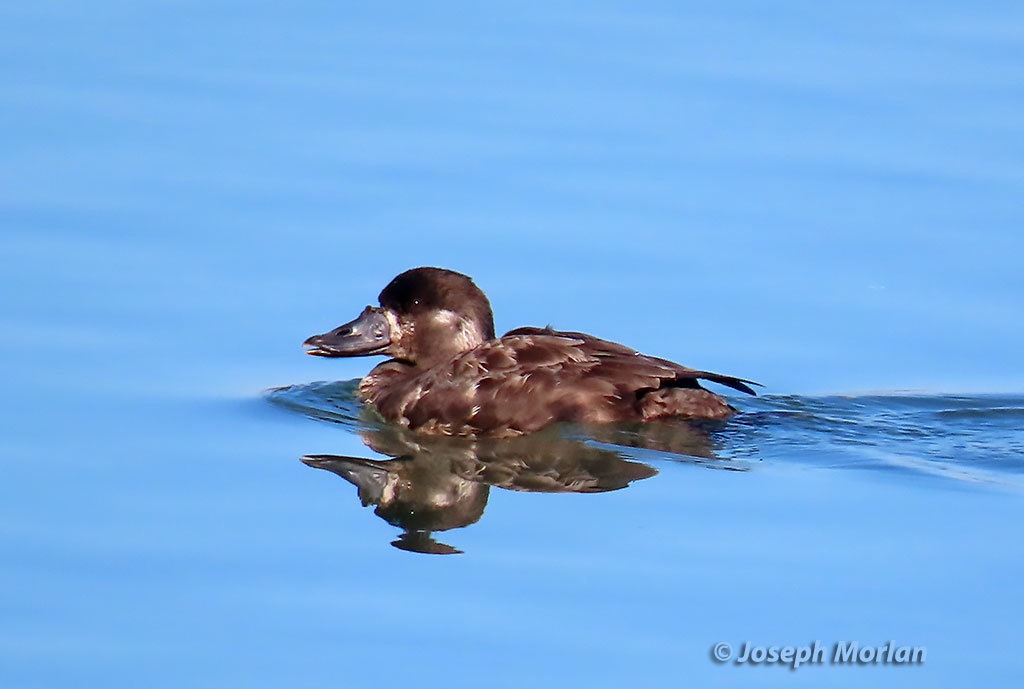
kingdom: Animalia
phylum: Chordata
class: Aves
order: Anseriformes
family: Anatidae
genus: Melanitta
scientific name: Melanitta perspicillata
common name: Surf scoter
